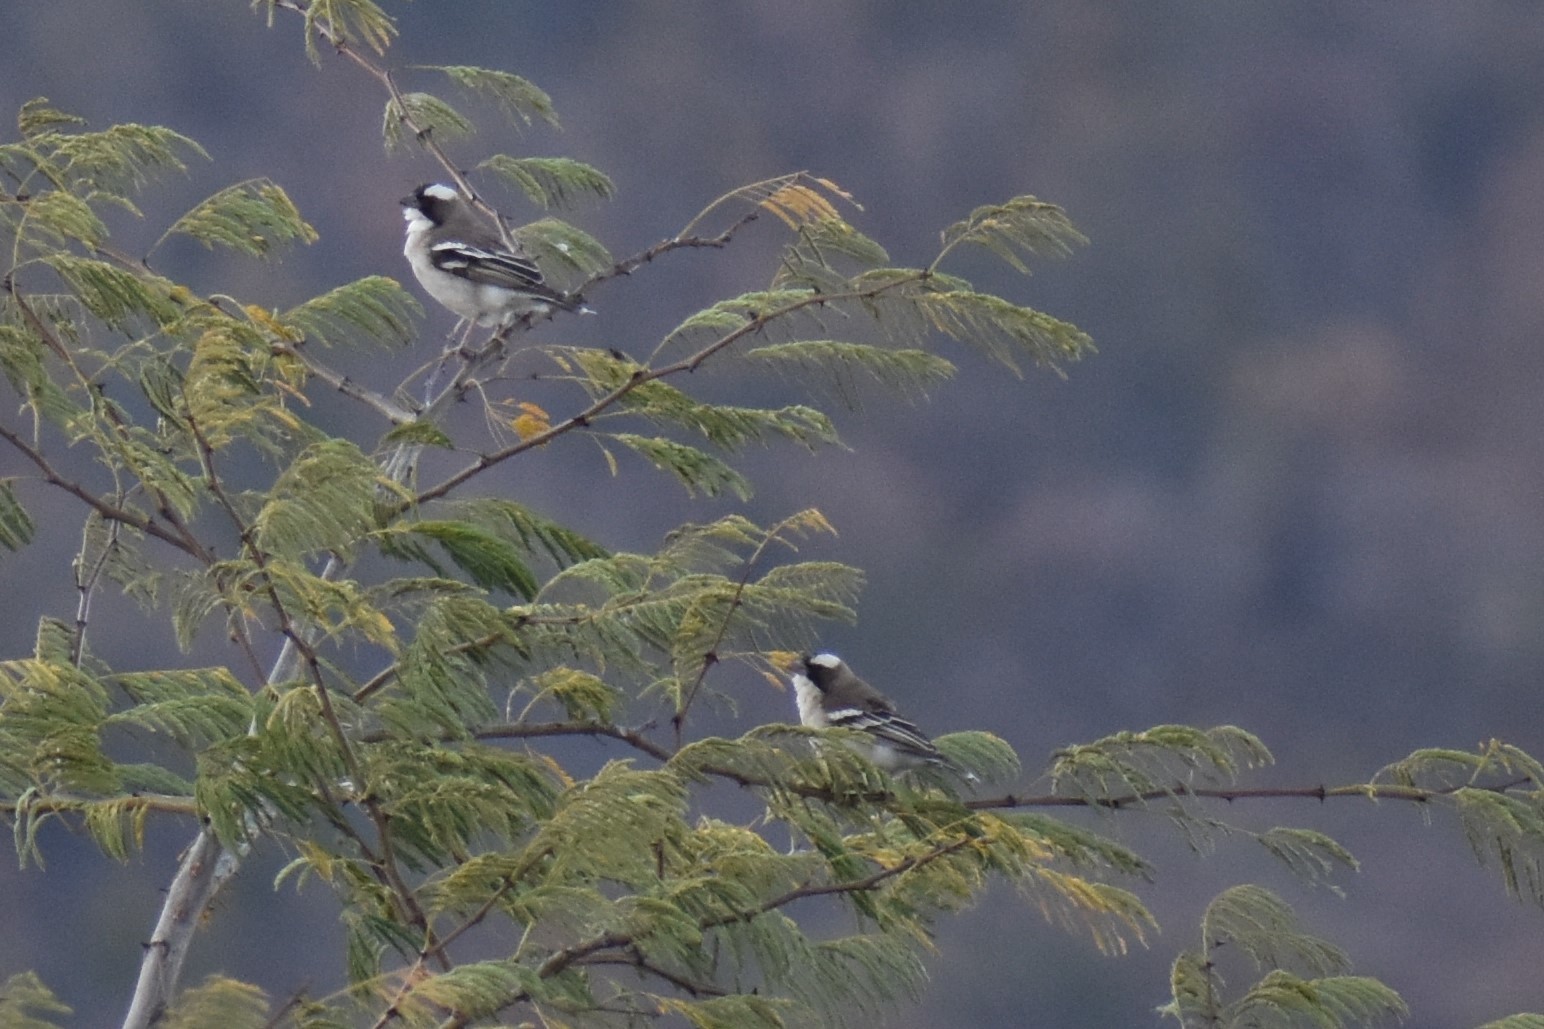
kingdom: Animalia
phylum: Chordata
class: Aves
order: Passeriformes
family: Passeridae
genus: Plocepasser
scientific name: Plocepasser mahali
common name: White-browed sparrow-weaver
